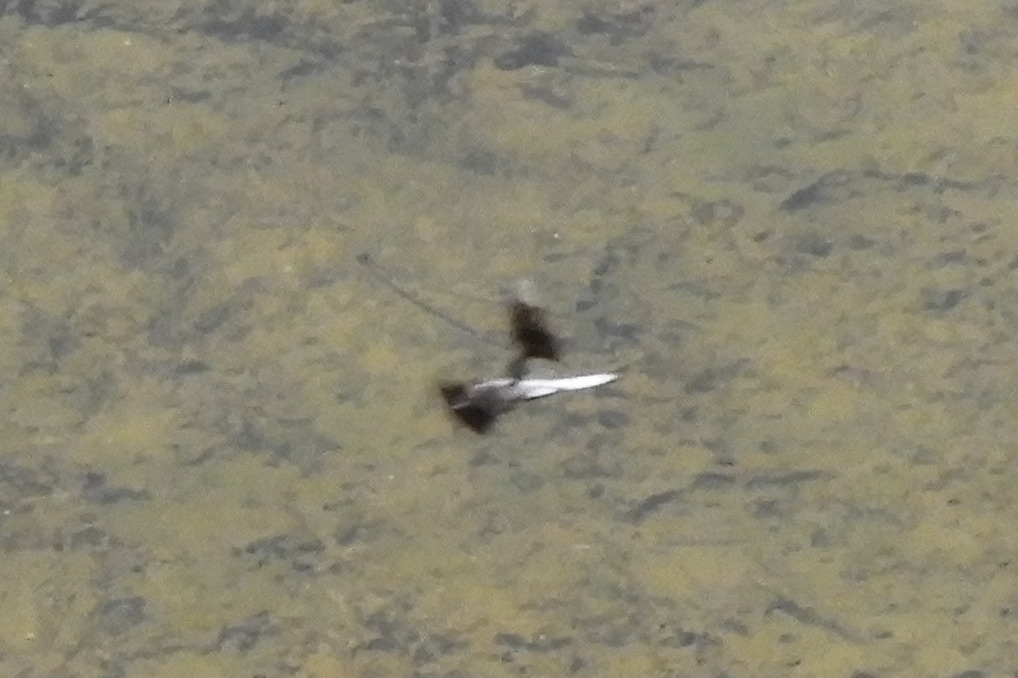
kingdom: Animalia
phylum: Arthropoda
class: Insecta
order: Odonata
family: Libellulidae
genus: Plathemis
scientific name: Plathemis lydia
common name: Common whitetail
